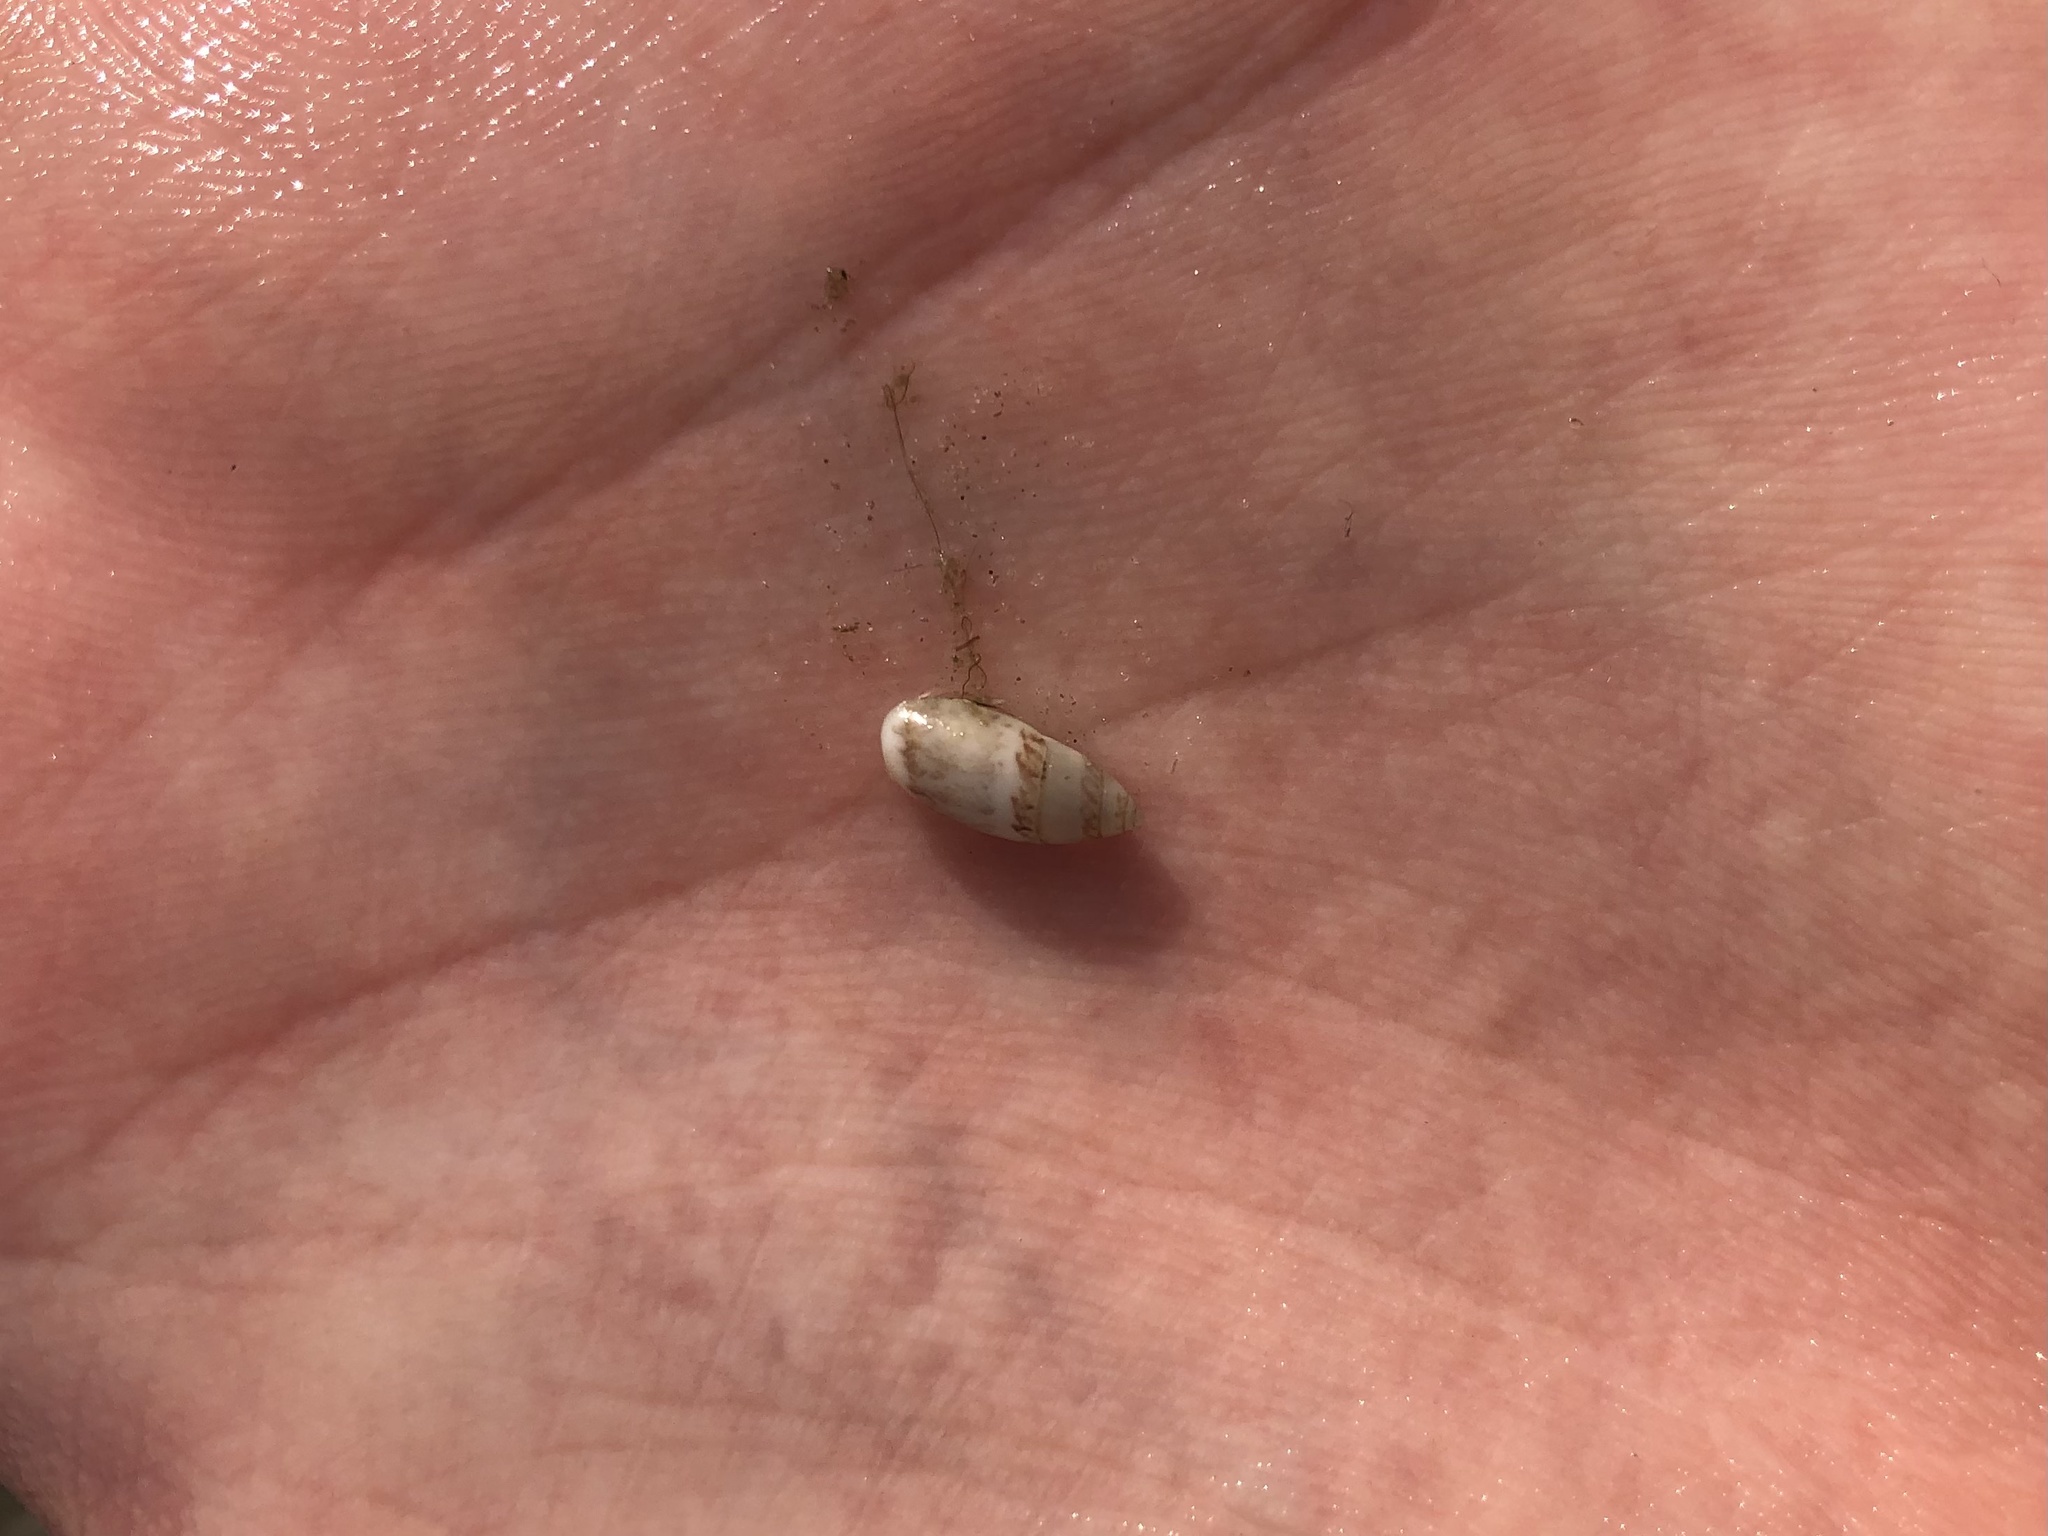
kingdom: Animalia
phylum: Mollusca
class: Gastropoda
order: Neogastropoda
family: Olividae
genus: Olivella
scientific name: Olivella pusilla
